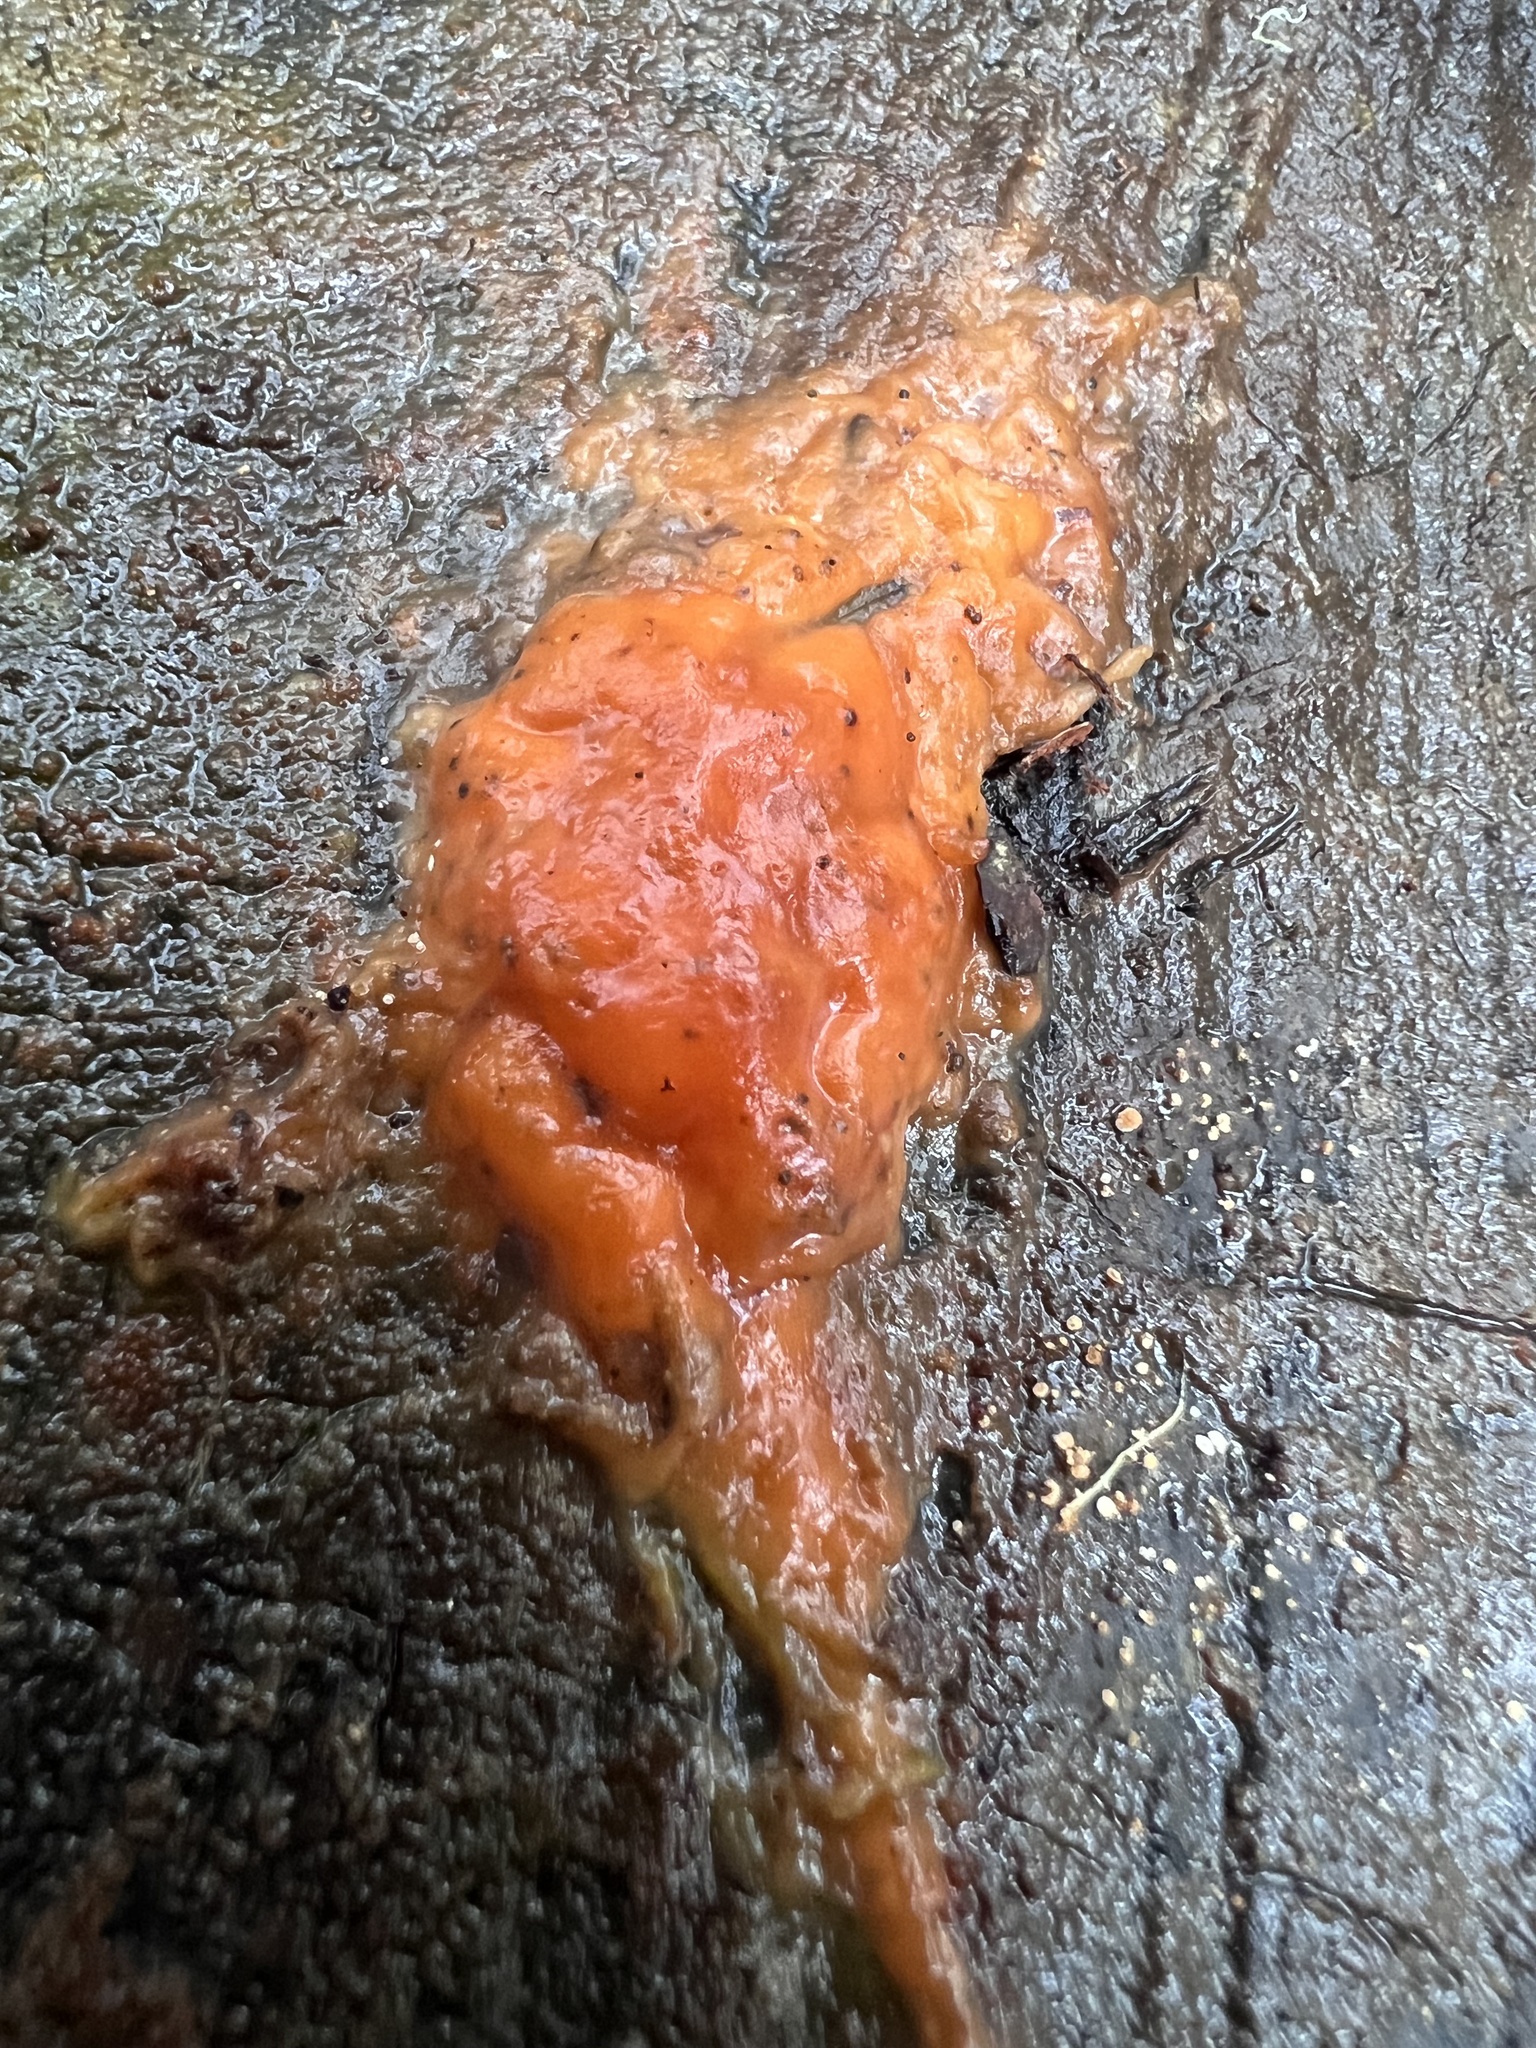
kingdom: Fungi
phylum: Ascomycota
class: Sordariomycetes
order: Hypocreales
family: Nectriaceae
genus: Fusicolla
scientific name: Fusicolla merismoides
